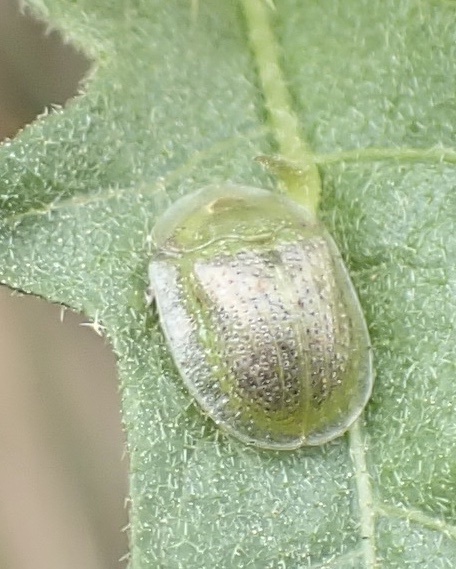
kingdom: Animalia
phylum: Arthropoda
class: Insecta
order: Coleoptera
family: Chrysomelidae
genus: Gratiana
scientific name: Gratiana pallidula
